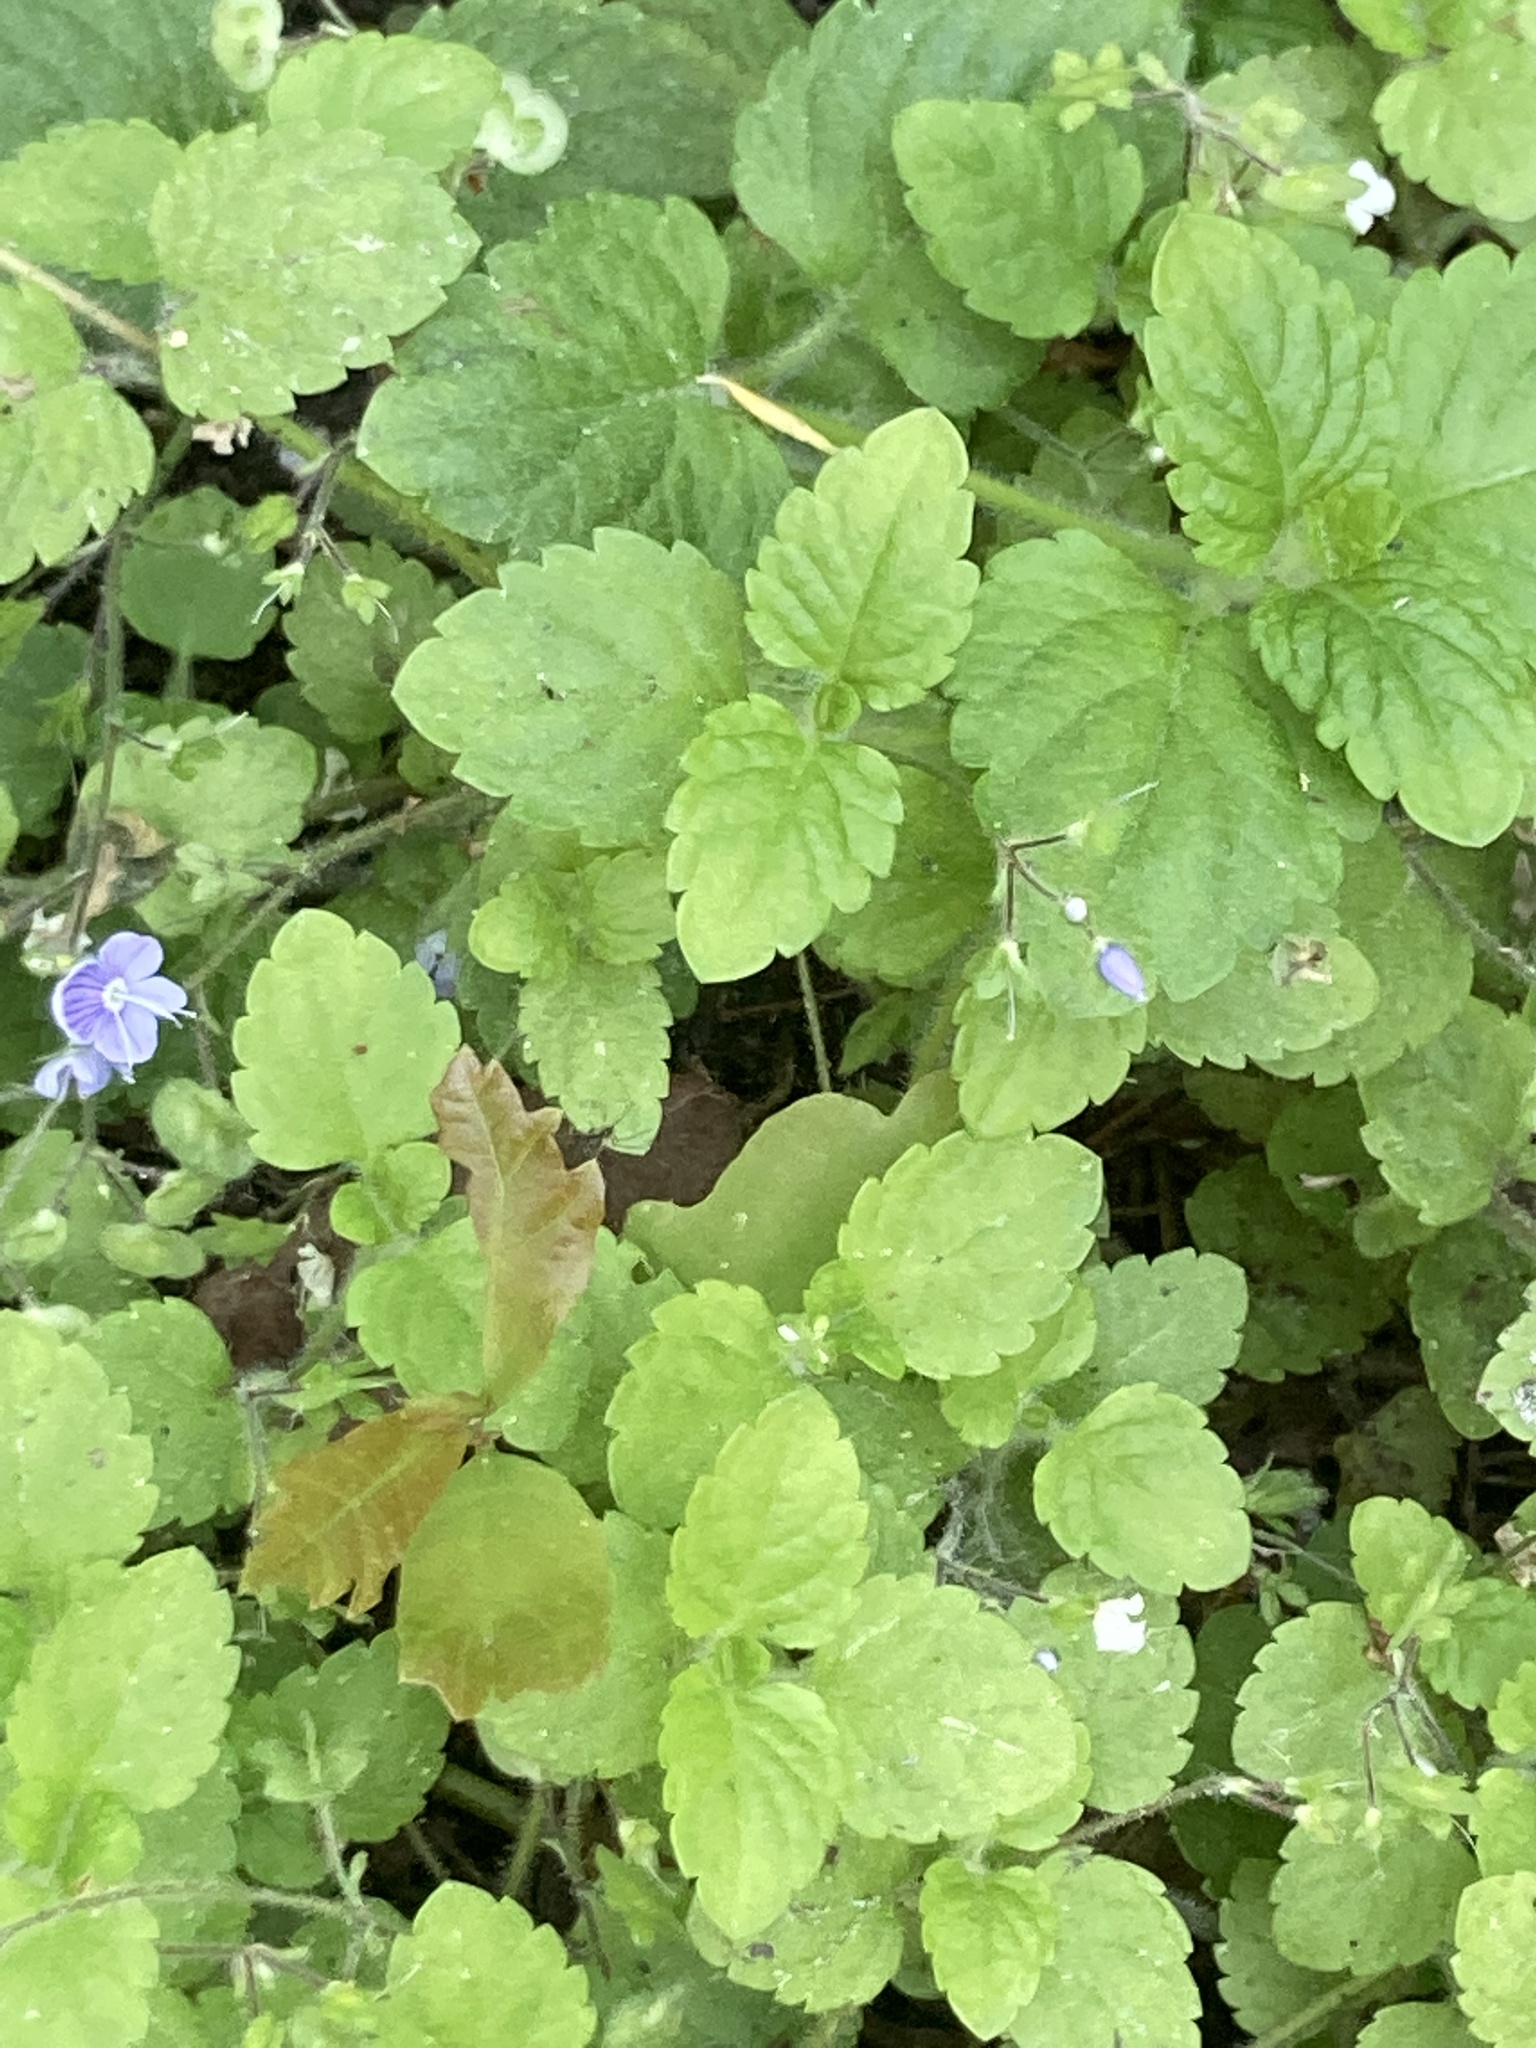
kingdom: Plantae
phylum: Tracheophyta
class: Magnoliopsida
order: Lamiales
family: Plantaginaceae
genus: Veronica
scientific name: Veronica montana
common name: Wood speedwell
